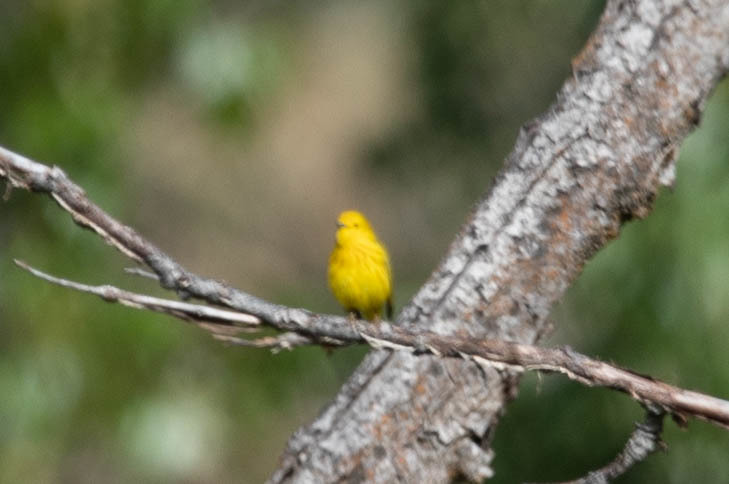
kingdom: Animalia
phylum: Chordata
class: Aves
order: Passeriformes
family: Parulidae
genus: Setophaga
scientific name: Setophaga petechia
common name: Yellow warbler
